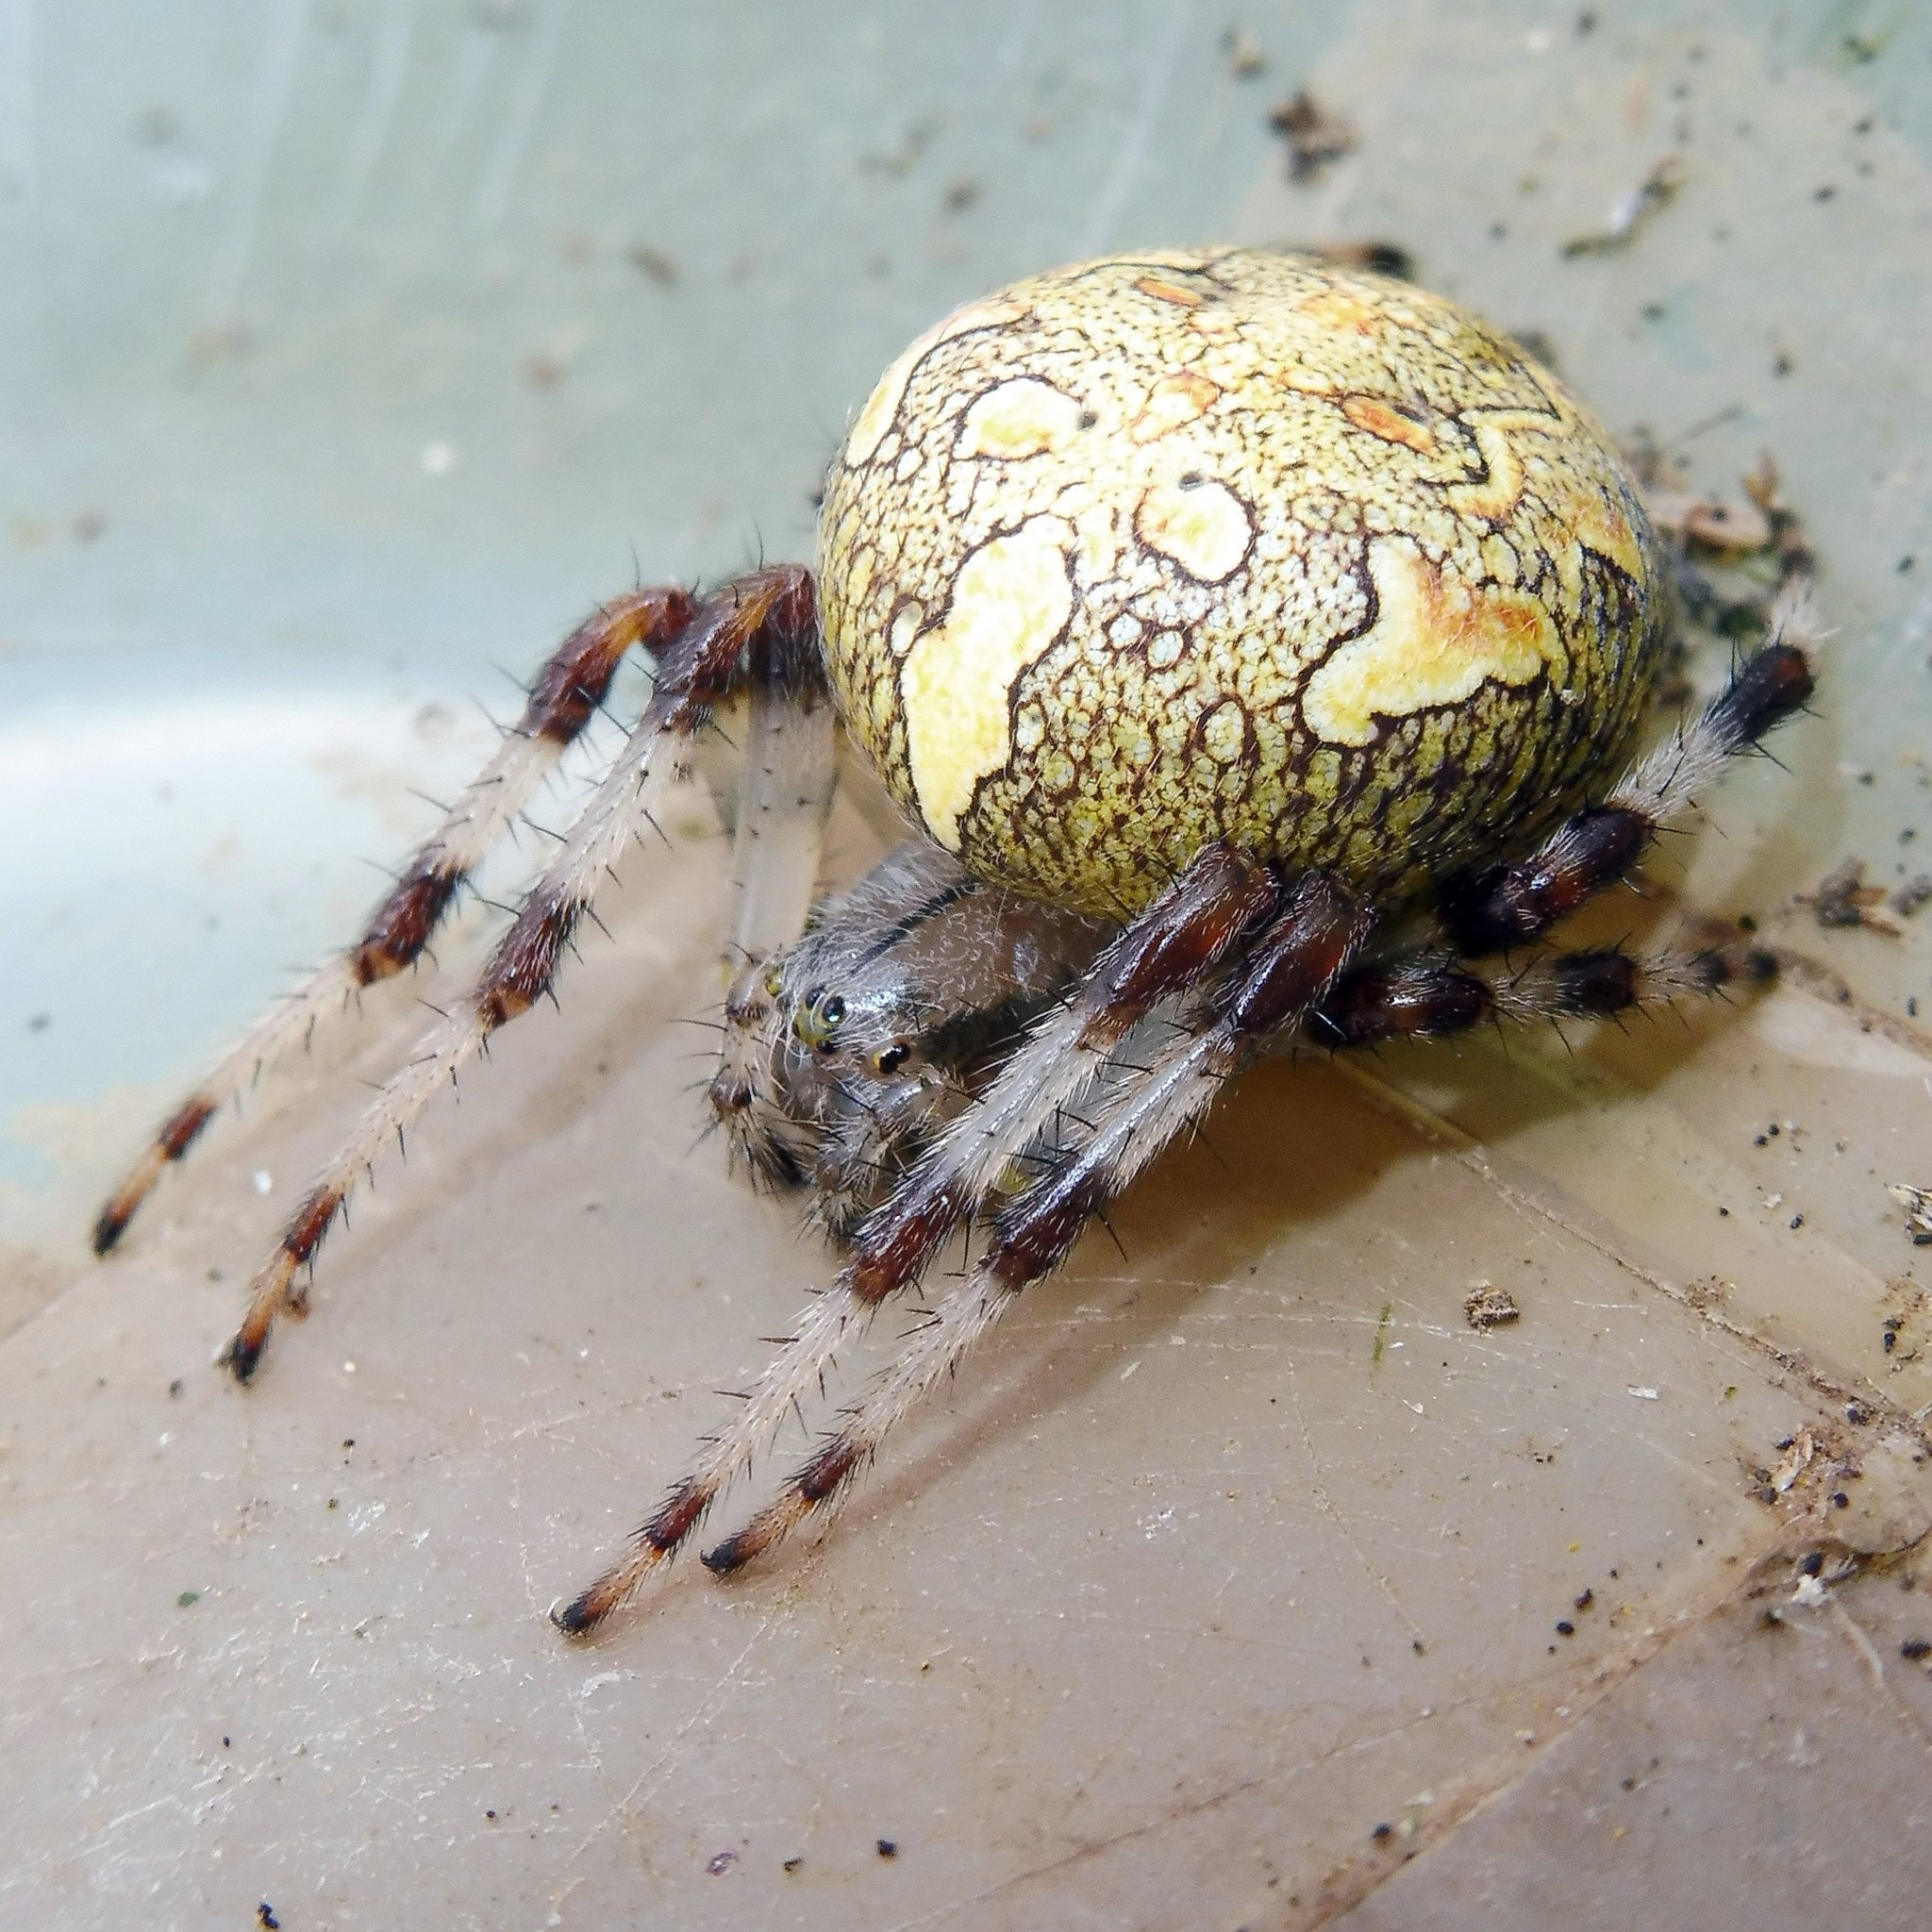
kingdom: Animalia
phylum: Arthropoda
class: Arachnida
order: Araneae
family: Araneidae
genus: Araneus
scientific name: Araneus marmoreus
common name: Marbled orbweaver
